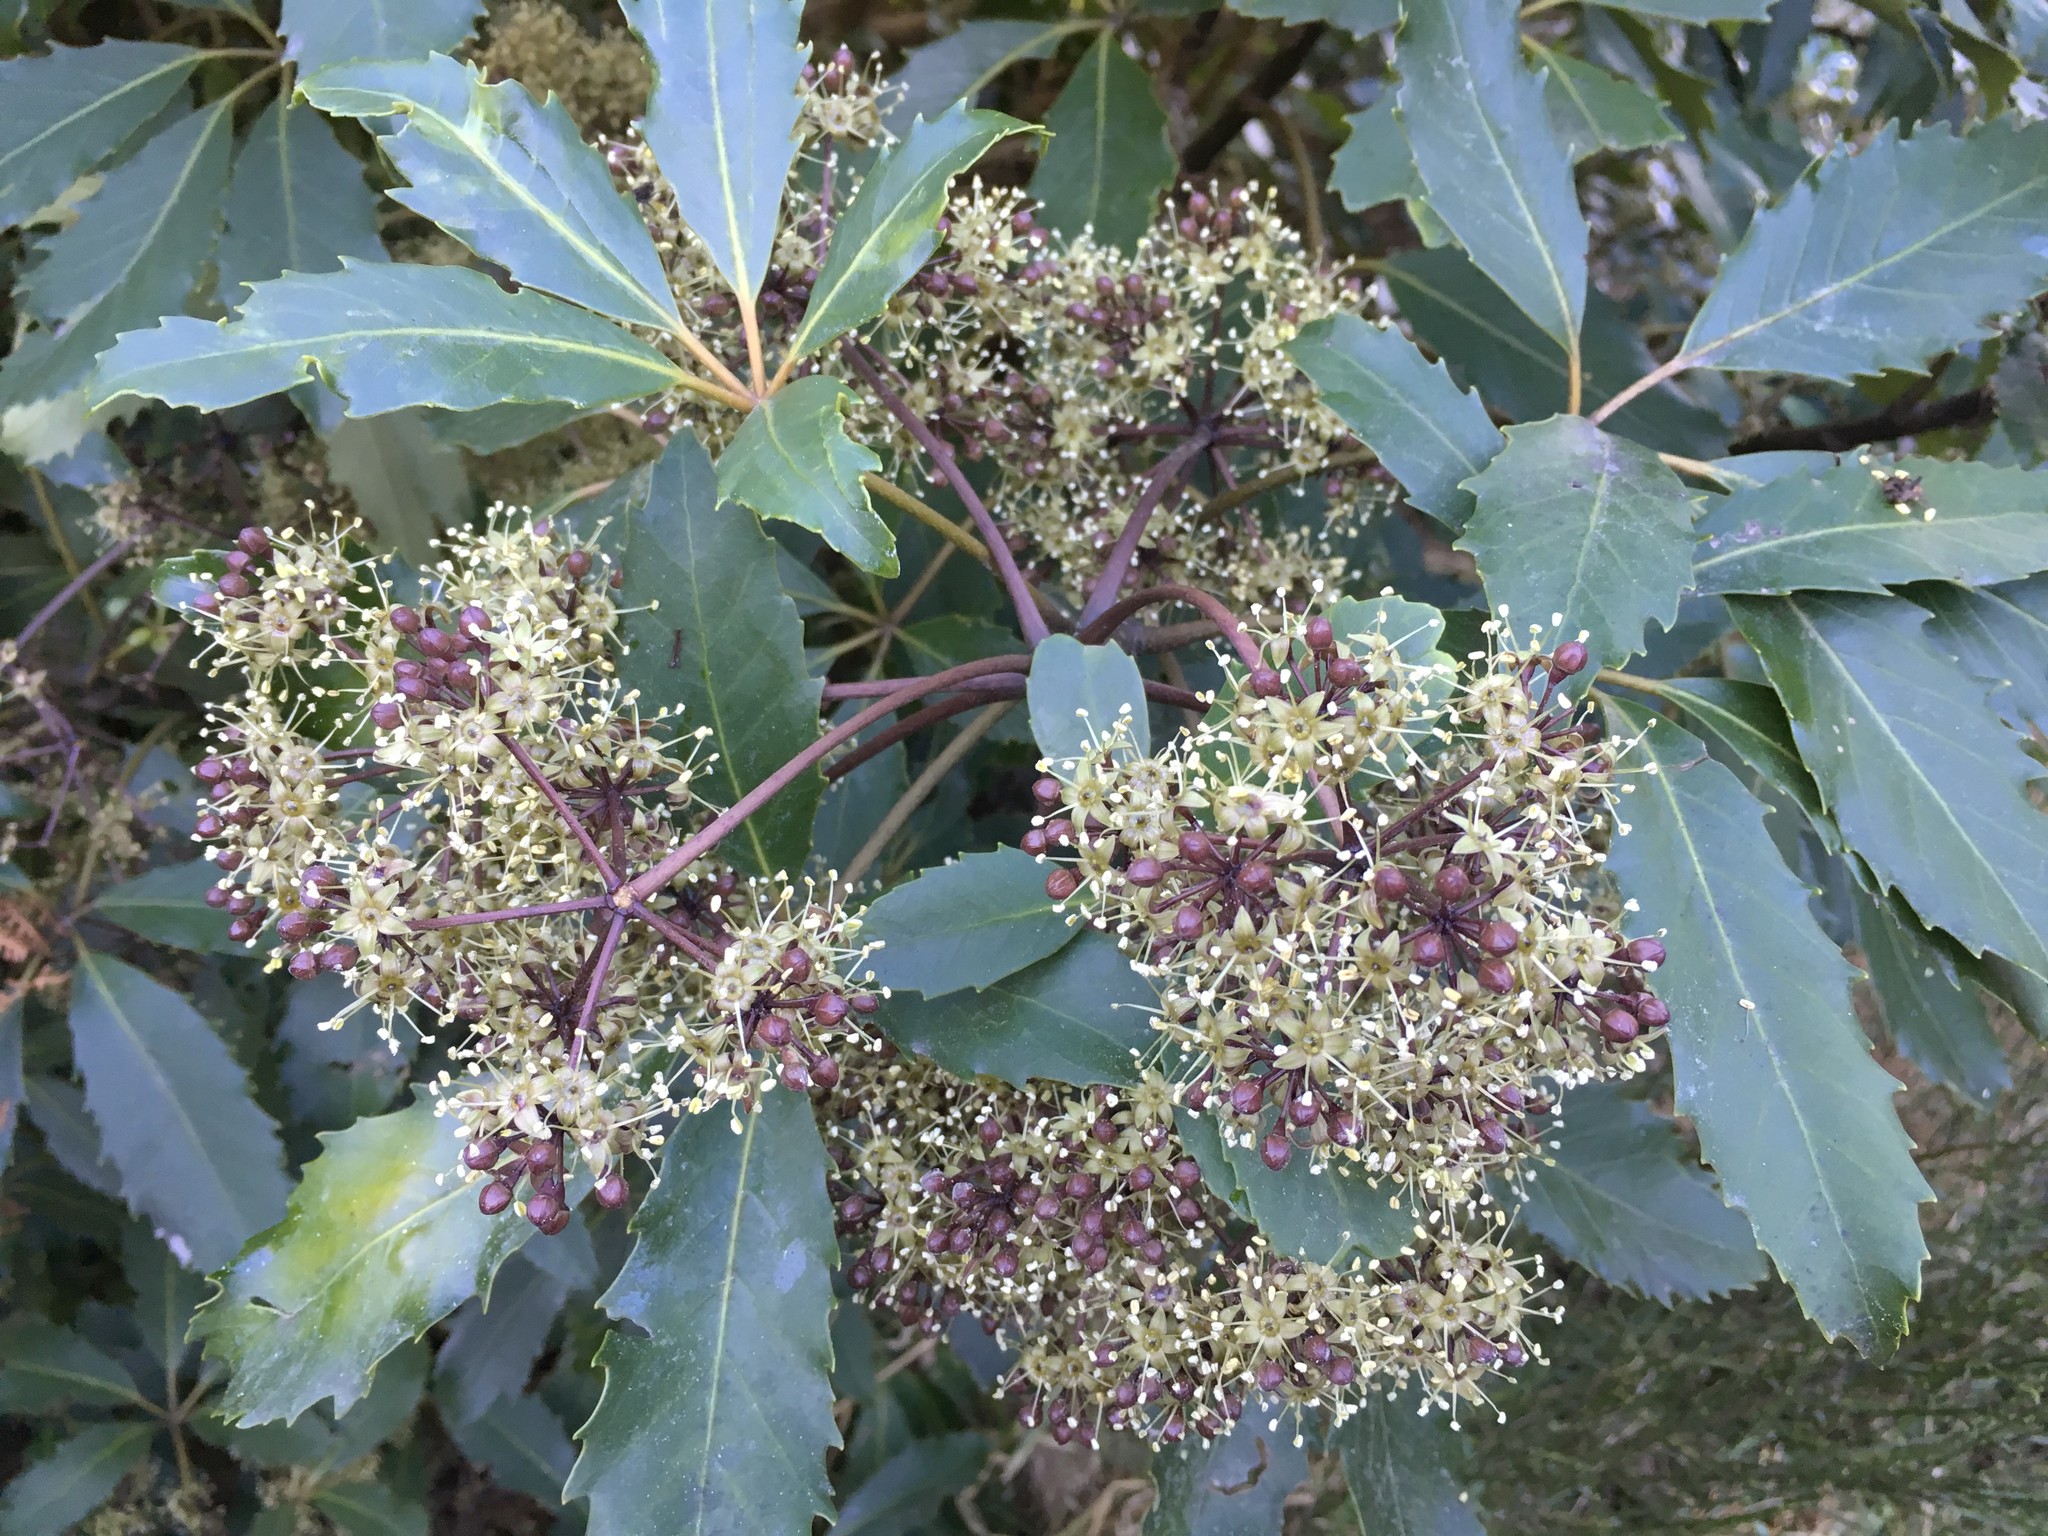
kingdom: Plantae
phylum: Tracheophyta
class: Magnoliopsida
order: Apiales
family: Araliaceae
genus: Neopanax
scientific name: Neopanax arboreus
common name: Five-fingers
